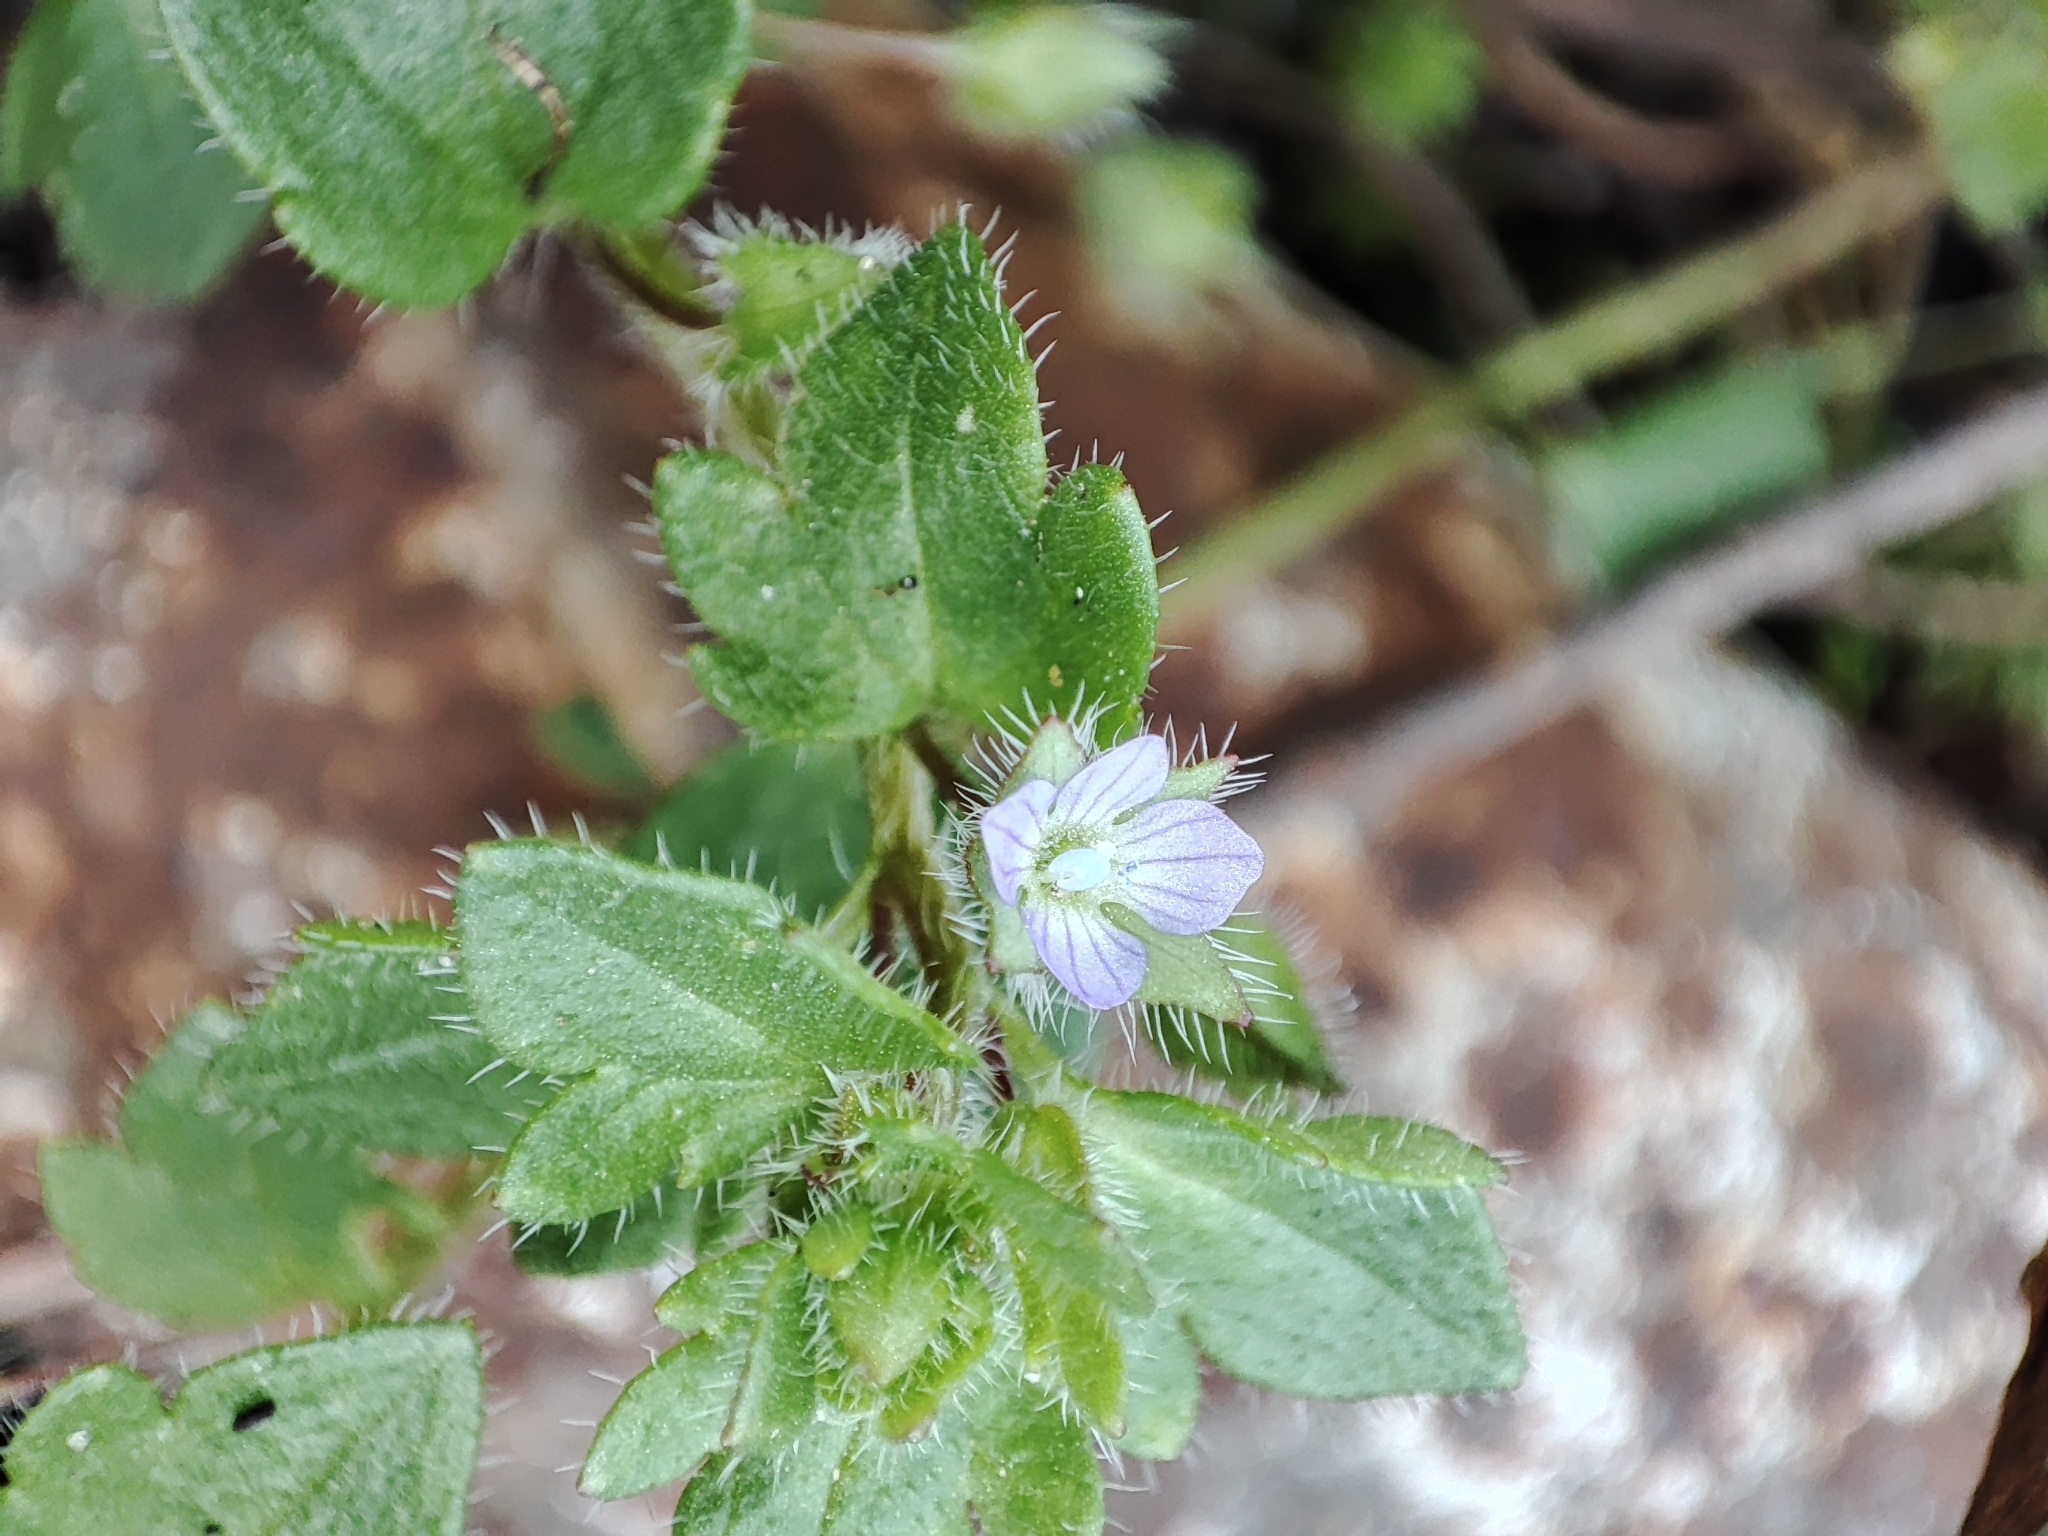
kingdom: Plantae
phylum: Tracheophyta
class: Magnoliopsida
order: Lamiales
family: Plantaginaceae
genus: Veronica
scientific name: Veronica hederifolia
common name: Ivy-leaved speedwell
